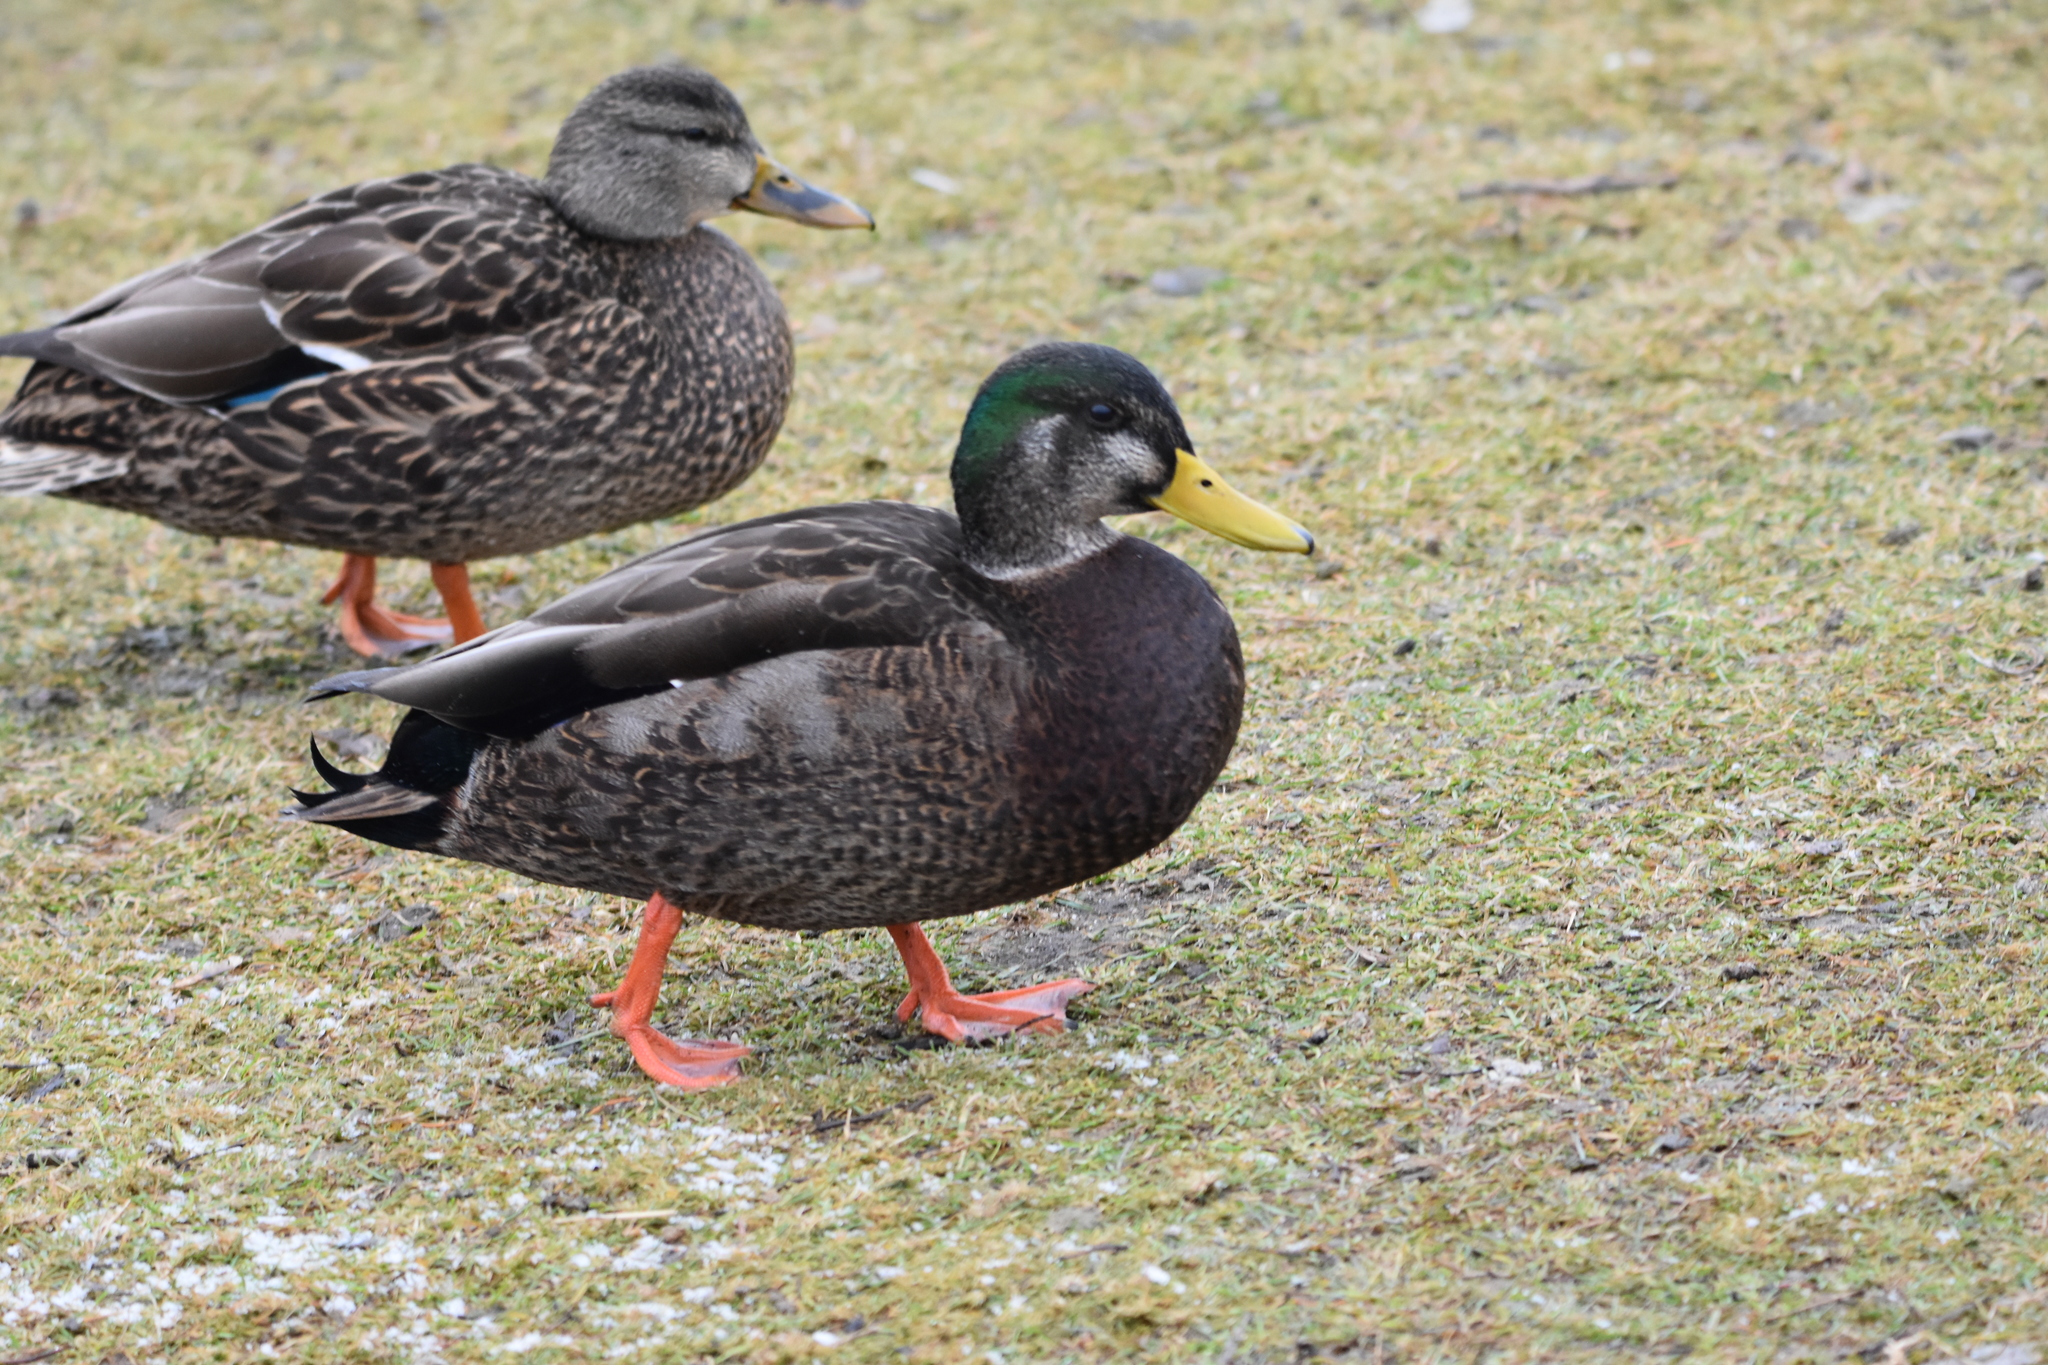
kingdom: Animalia
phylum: Chordata
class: Aves
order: Anseriformes
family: Anatidae
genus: Anas
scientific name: Anas
